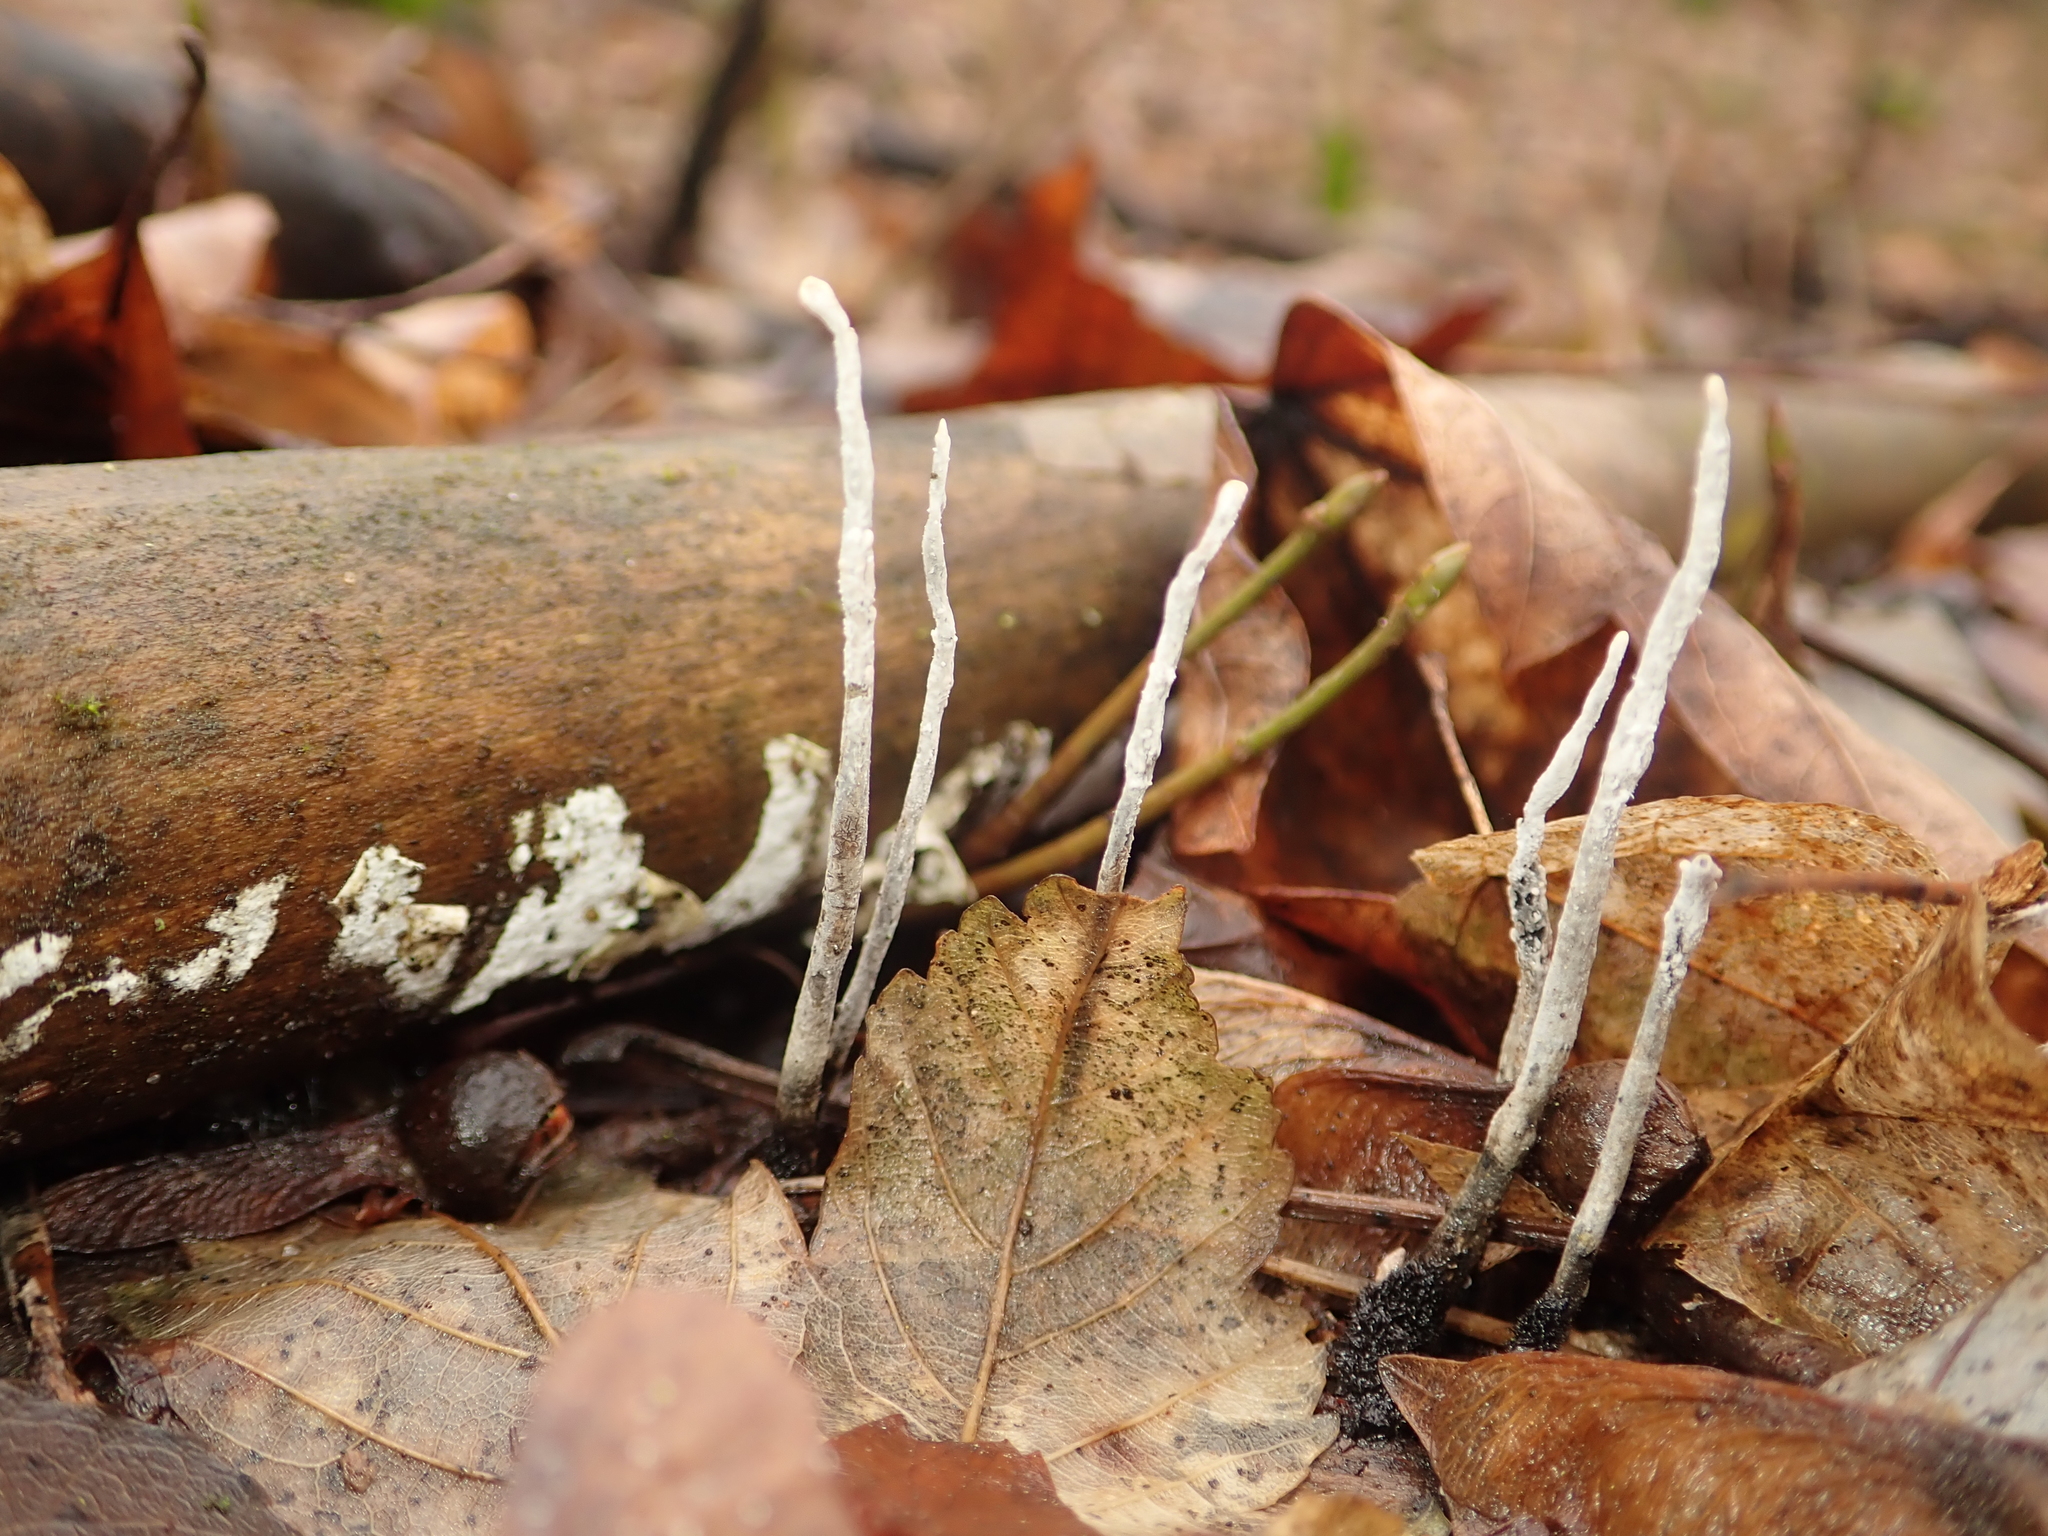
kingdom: Fungi
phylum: Ascomycota
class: Sordariomycetes
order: Xylariales
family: Xylariaceae
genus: Xylaria
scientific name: Xylaria hypoxylon
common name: Candle-snuff fungus
